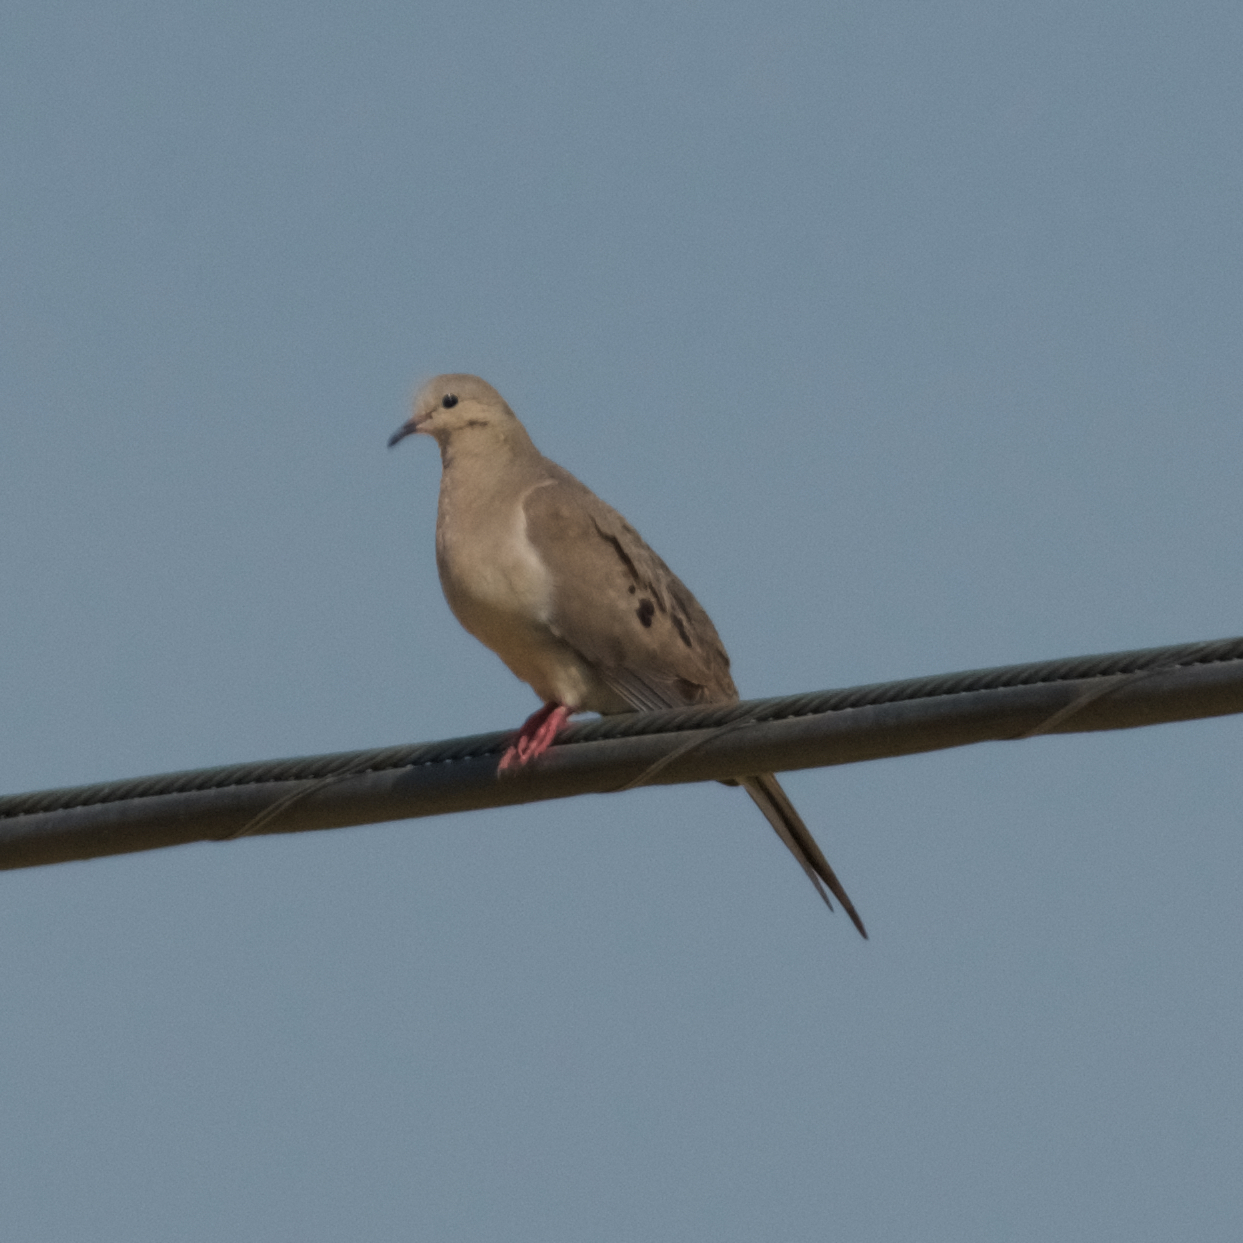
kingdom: Animalia
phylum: Chordata
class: Aves
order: Columbiformes
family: Columbidae
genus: Zenaida
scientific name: Zenaida macroura
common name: Mourning dove
